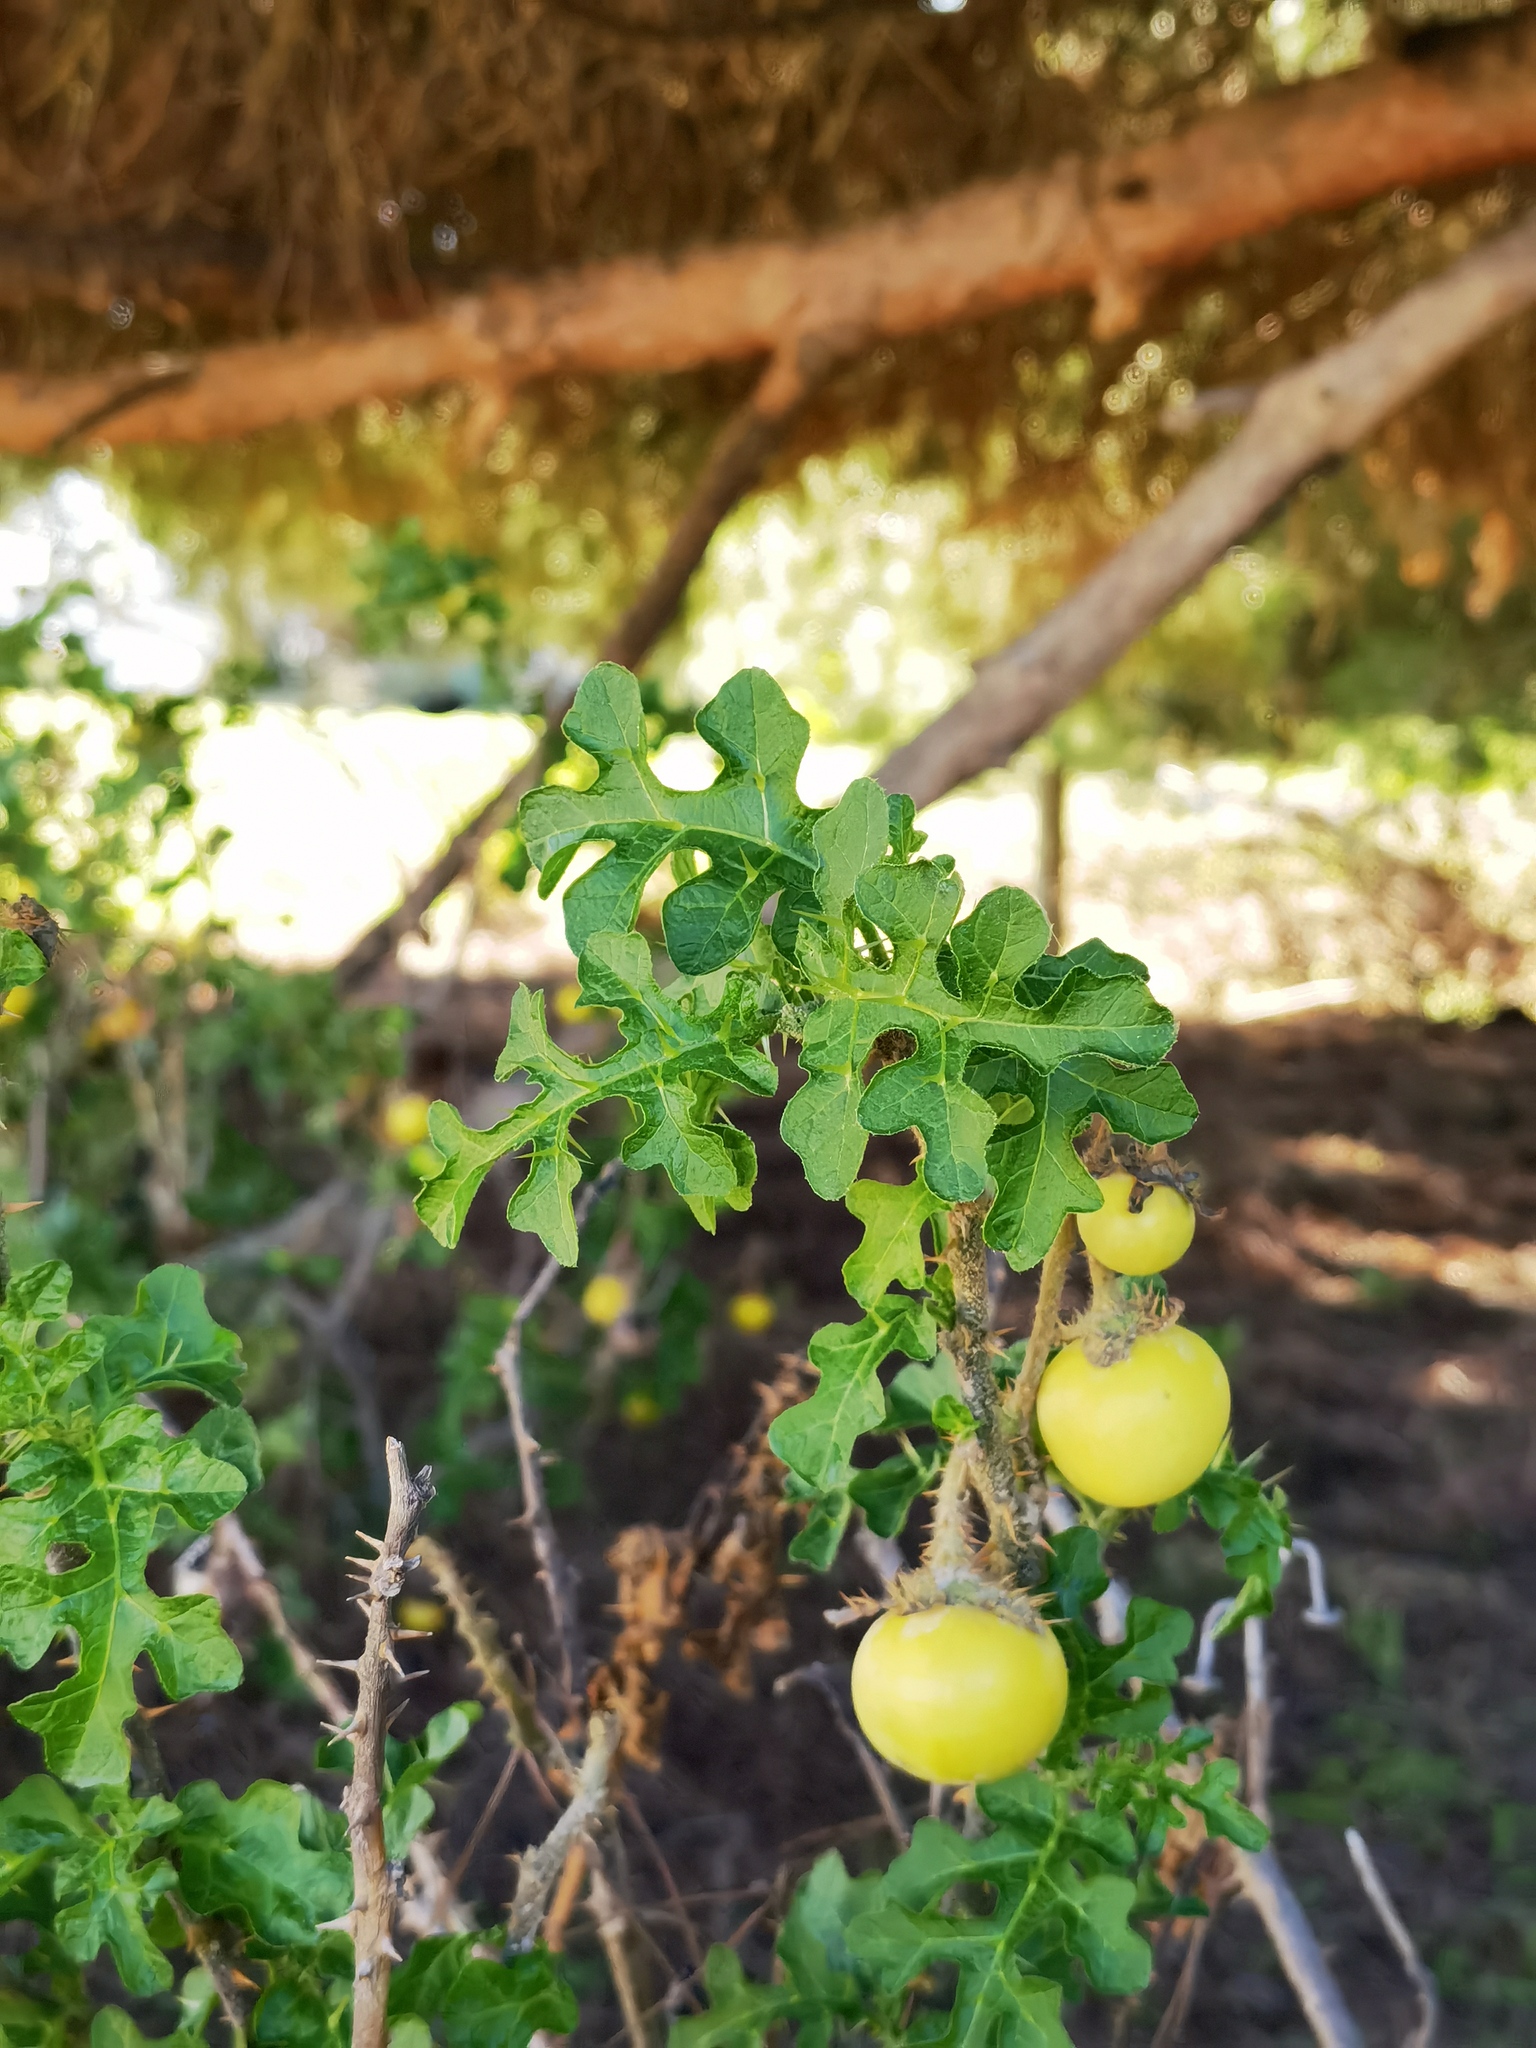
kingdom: Plantae
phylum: Tracheophyta
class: Magnoliopsida
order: Solanales
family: Solanaceae
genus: Solanum
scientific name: Solanum linnaeanum
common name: Nightshade
